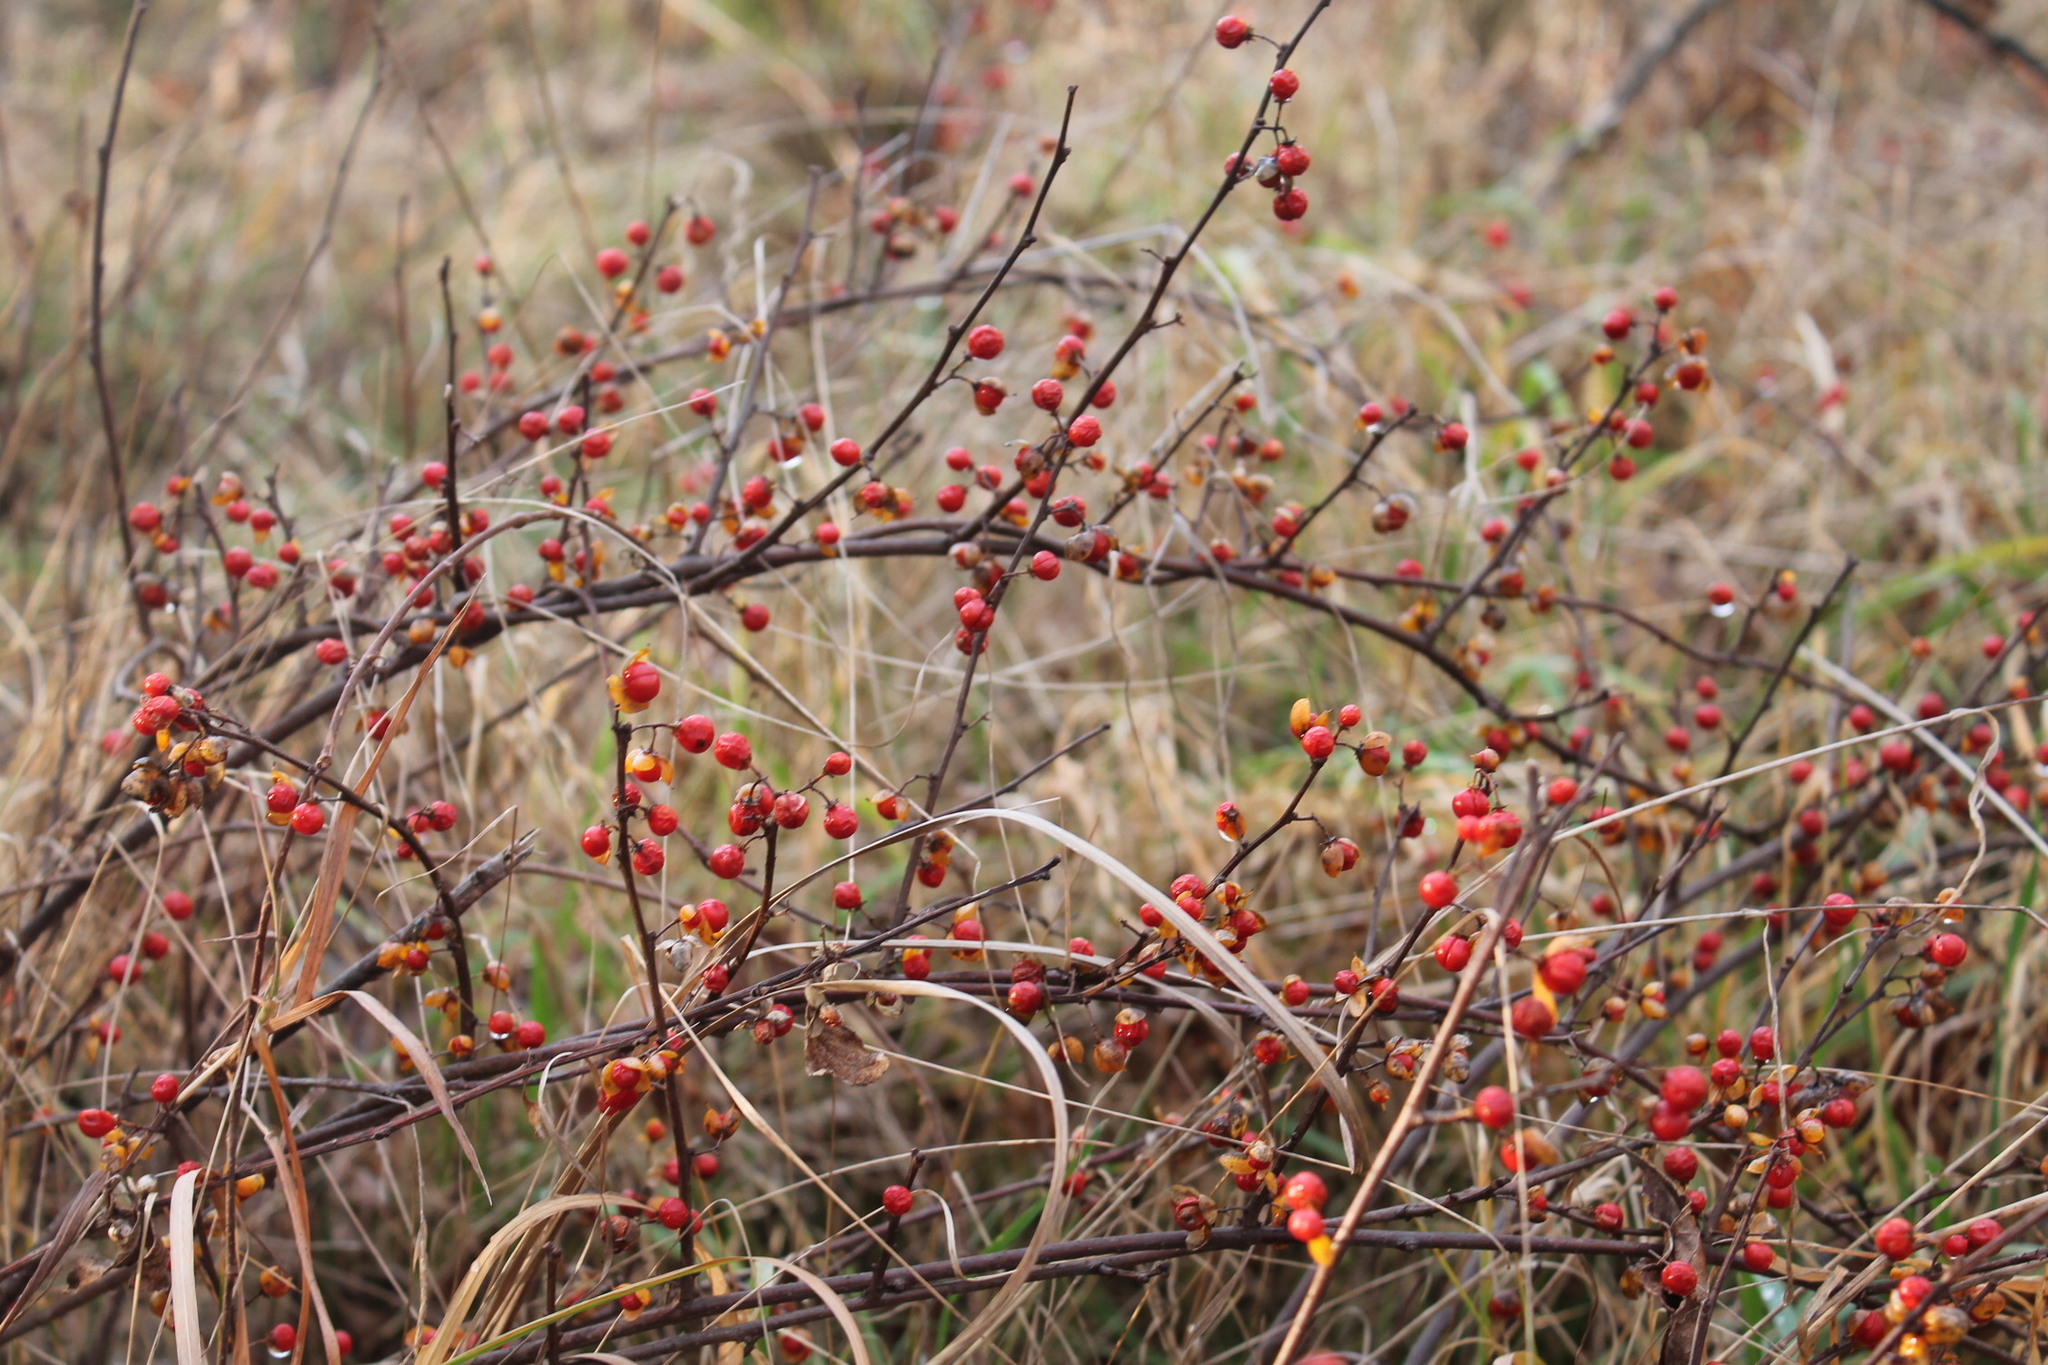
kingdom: Plantae
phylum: Tracheophyta
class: Magnoliopsida
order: Celastrales
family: Celastraceae
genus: Celastrus
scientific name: Celastrus orbiculatus
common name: Oriental bittersweet
